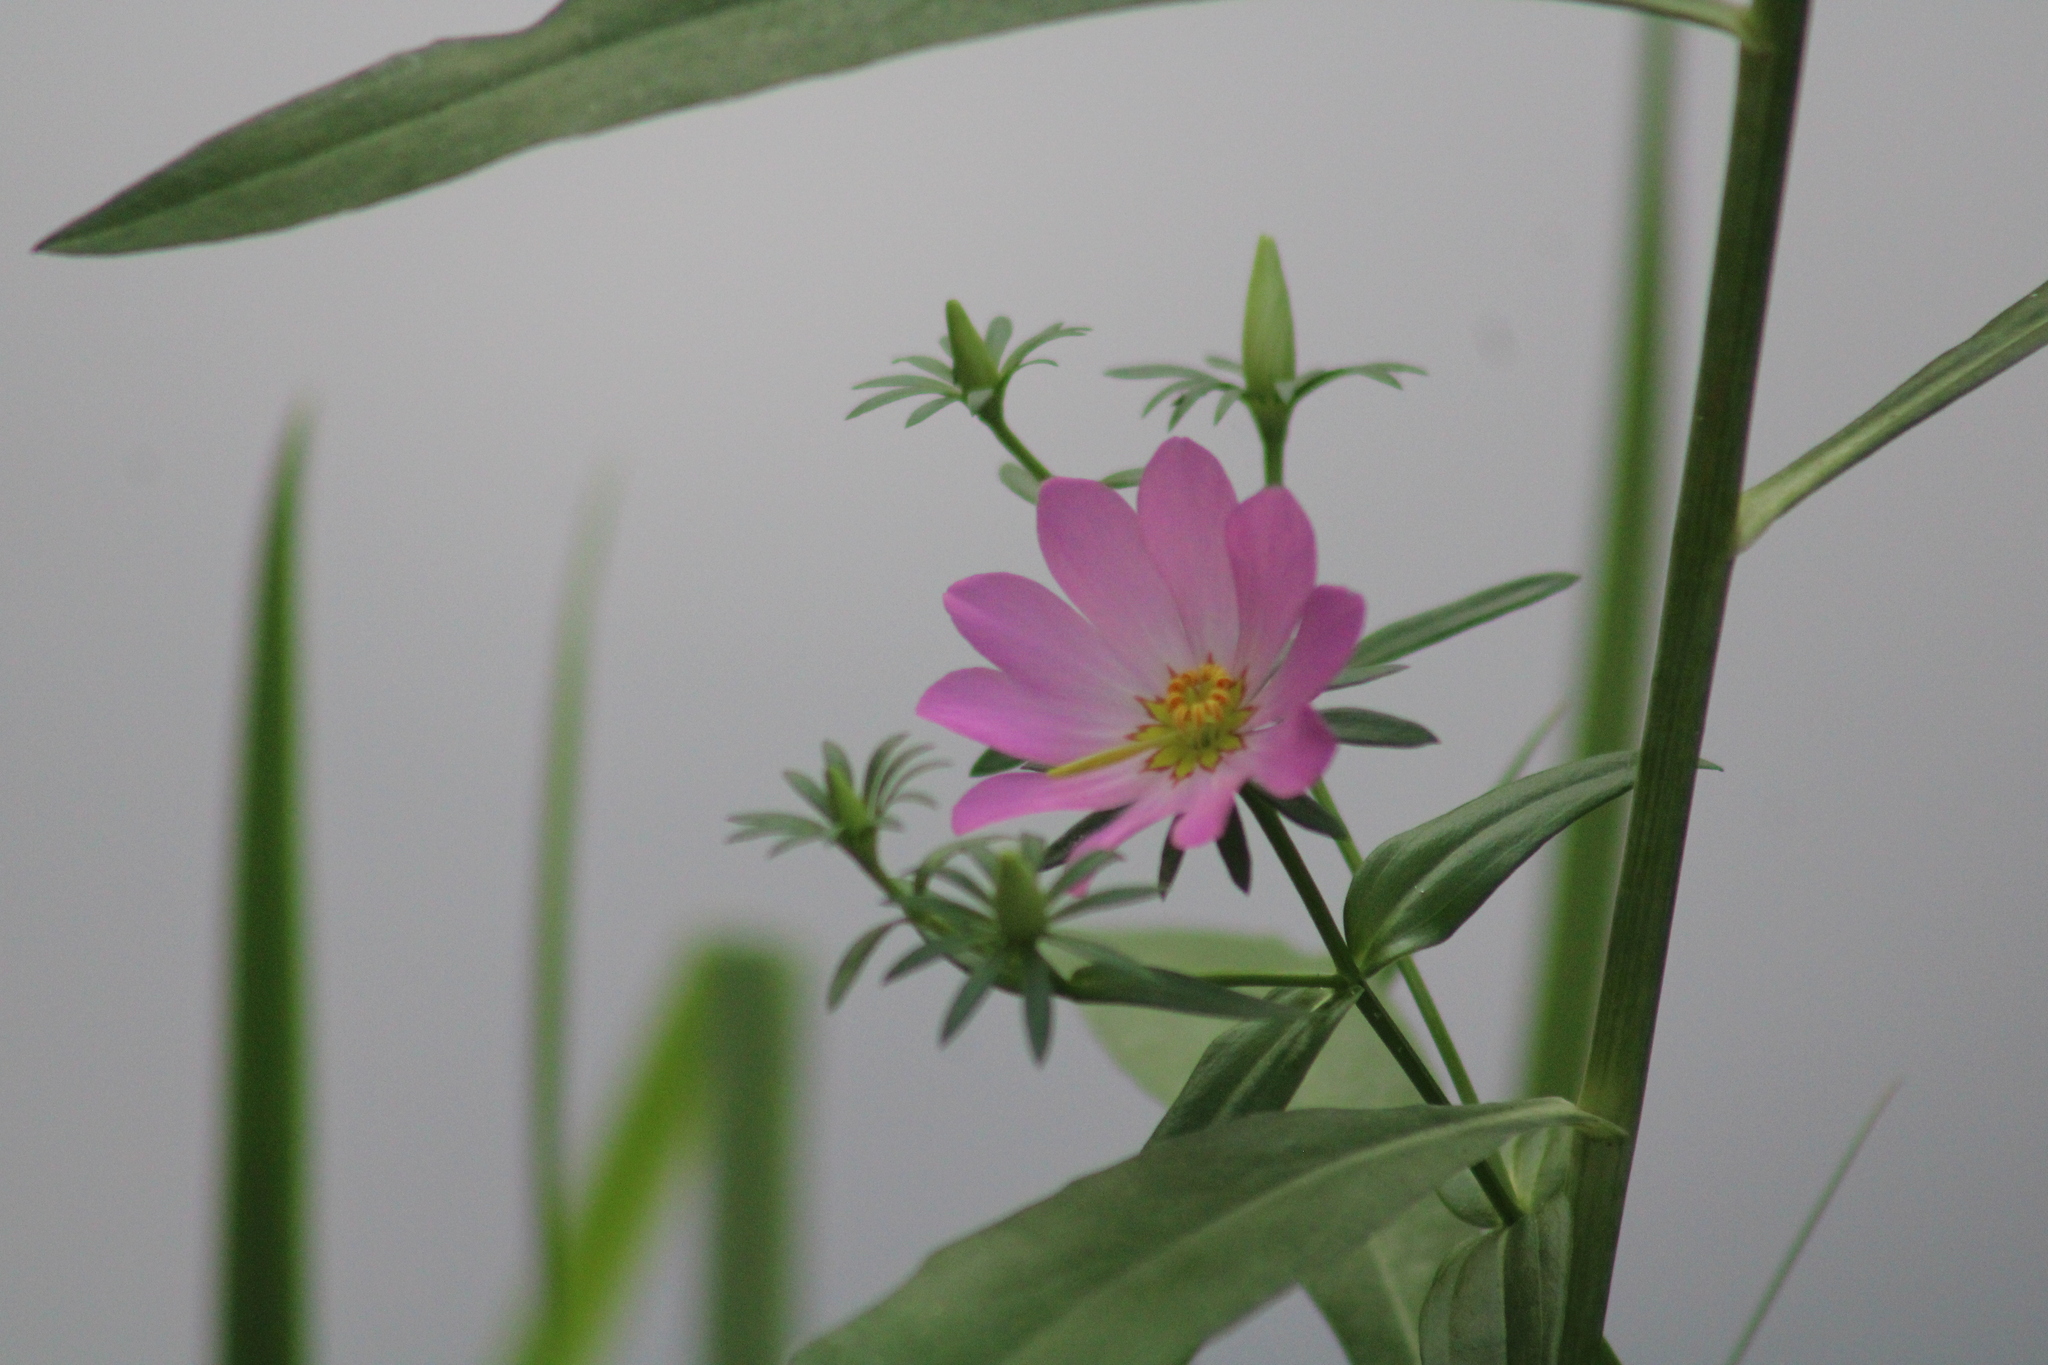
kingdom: Plantae
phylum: Tracheophyta
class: Magnoliopsida
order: Gentianales
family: Gentianaceae
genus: Sabatia
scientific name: Sabatia foliosa
